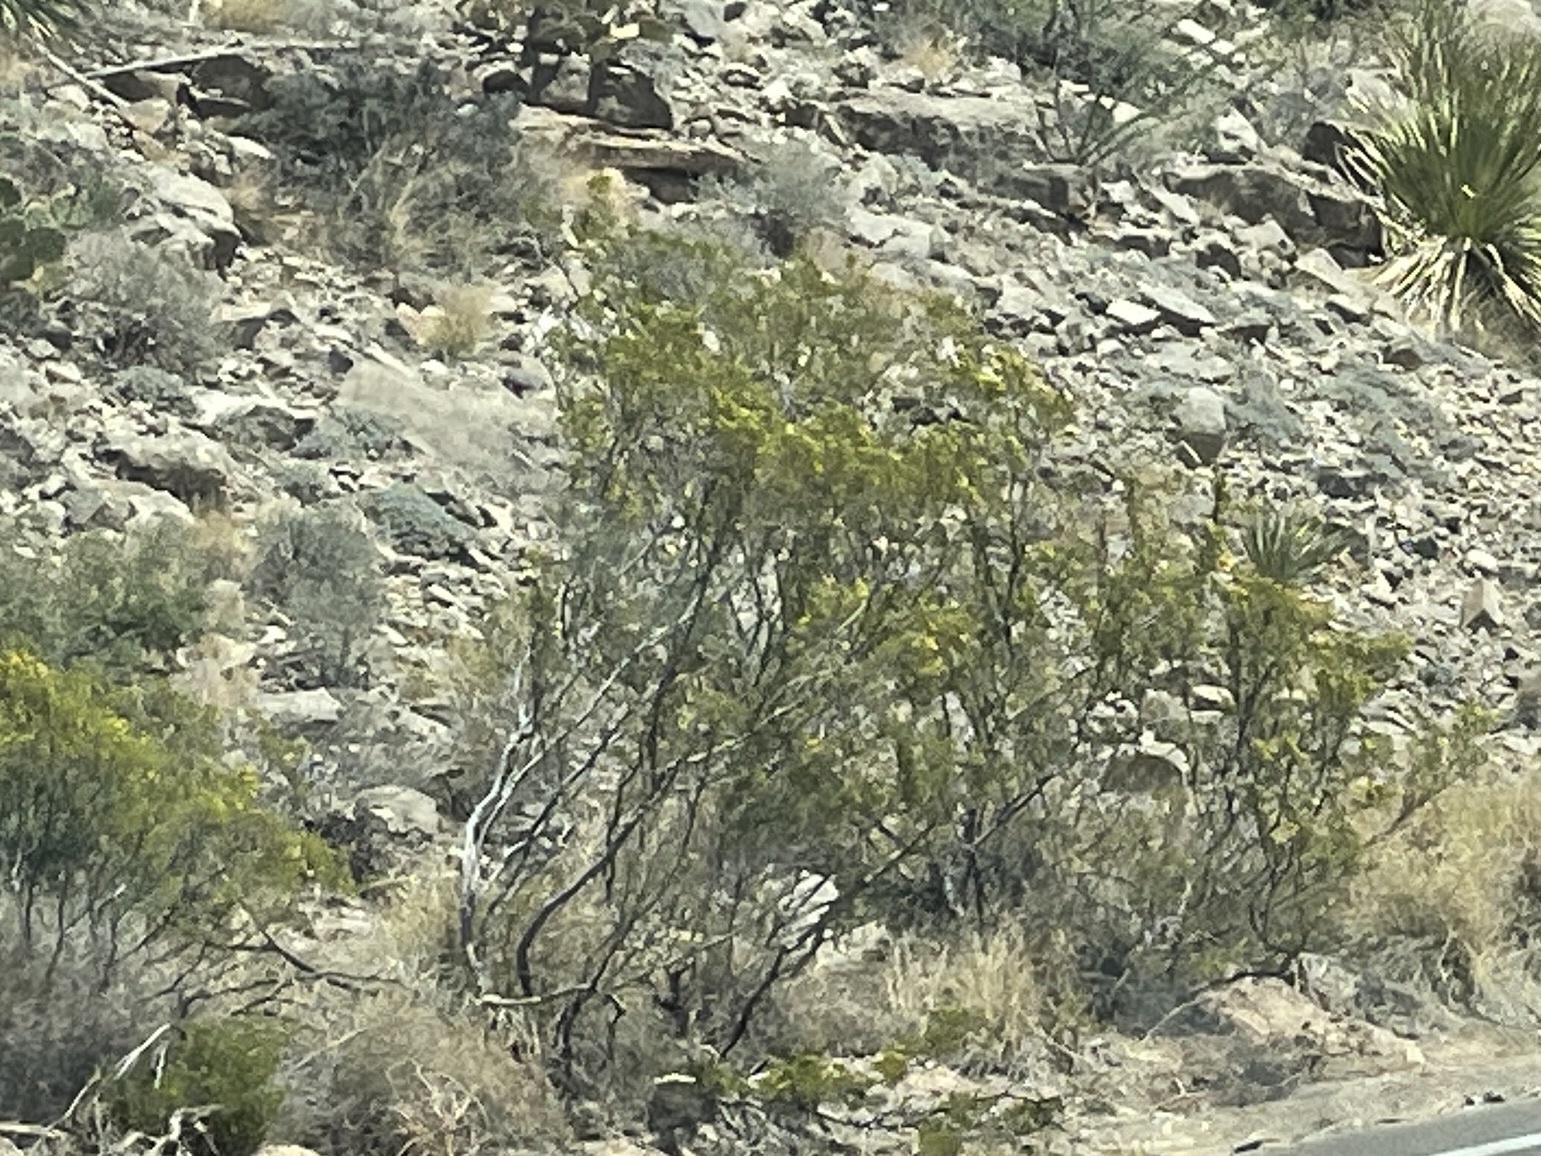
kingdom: Plantae
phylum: Tracheophyta
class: Magnoliopsida
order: Zygophyllales
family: Zygophyllaceae
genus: Larrea
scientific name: Larrea tridentata
